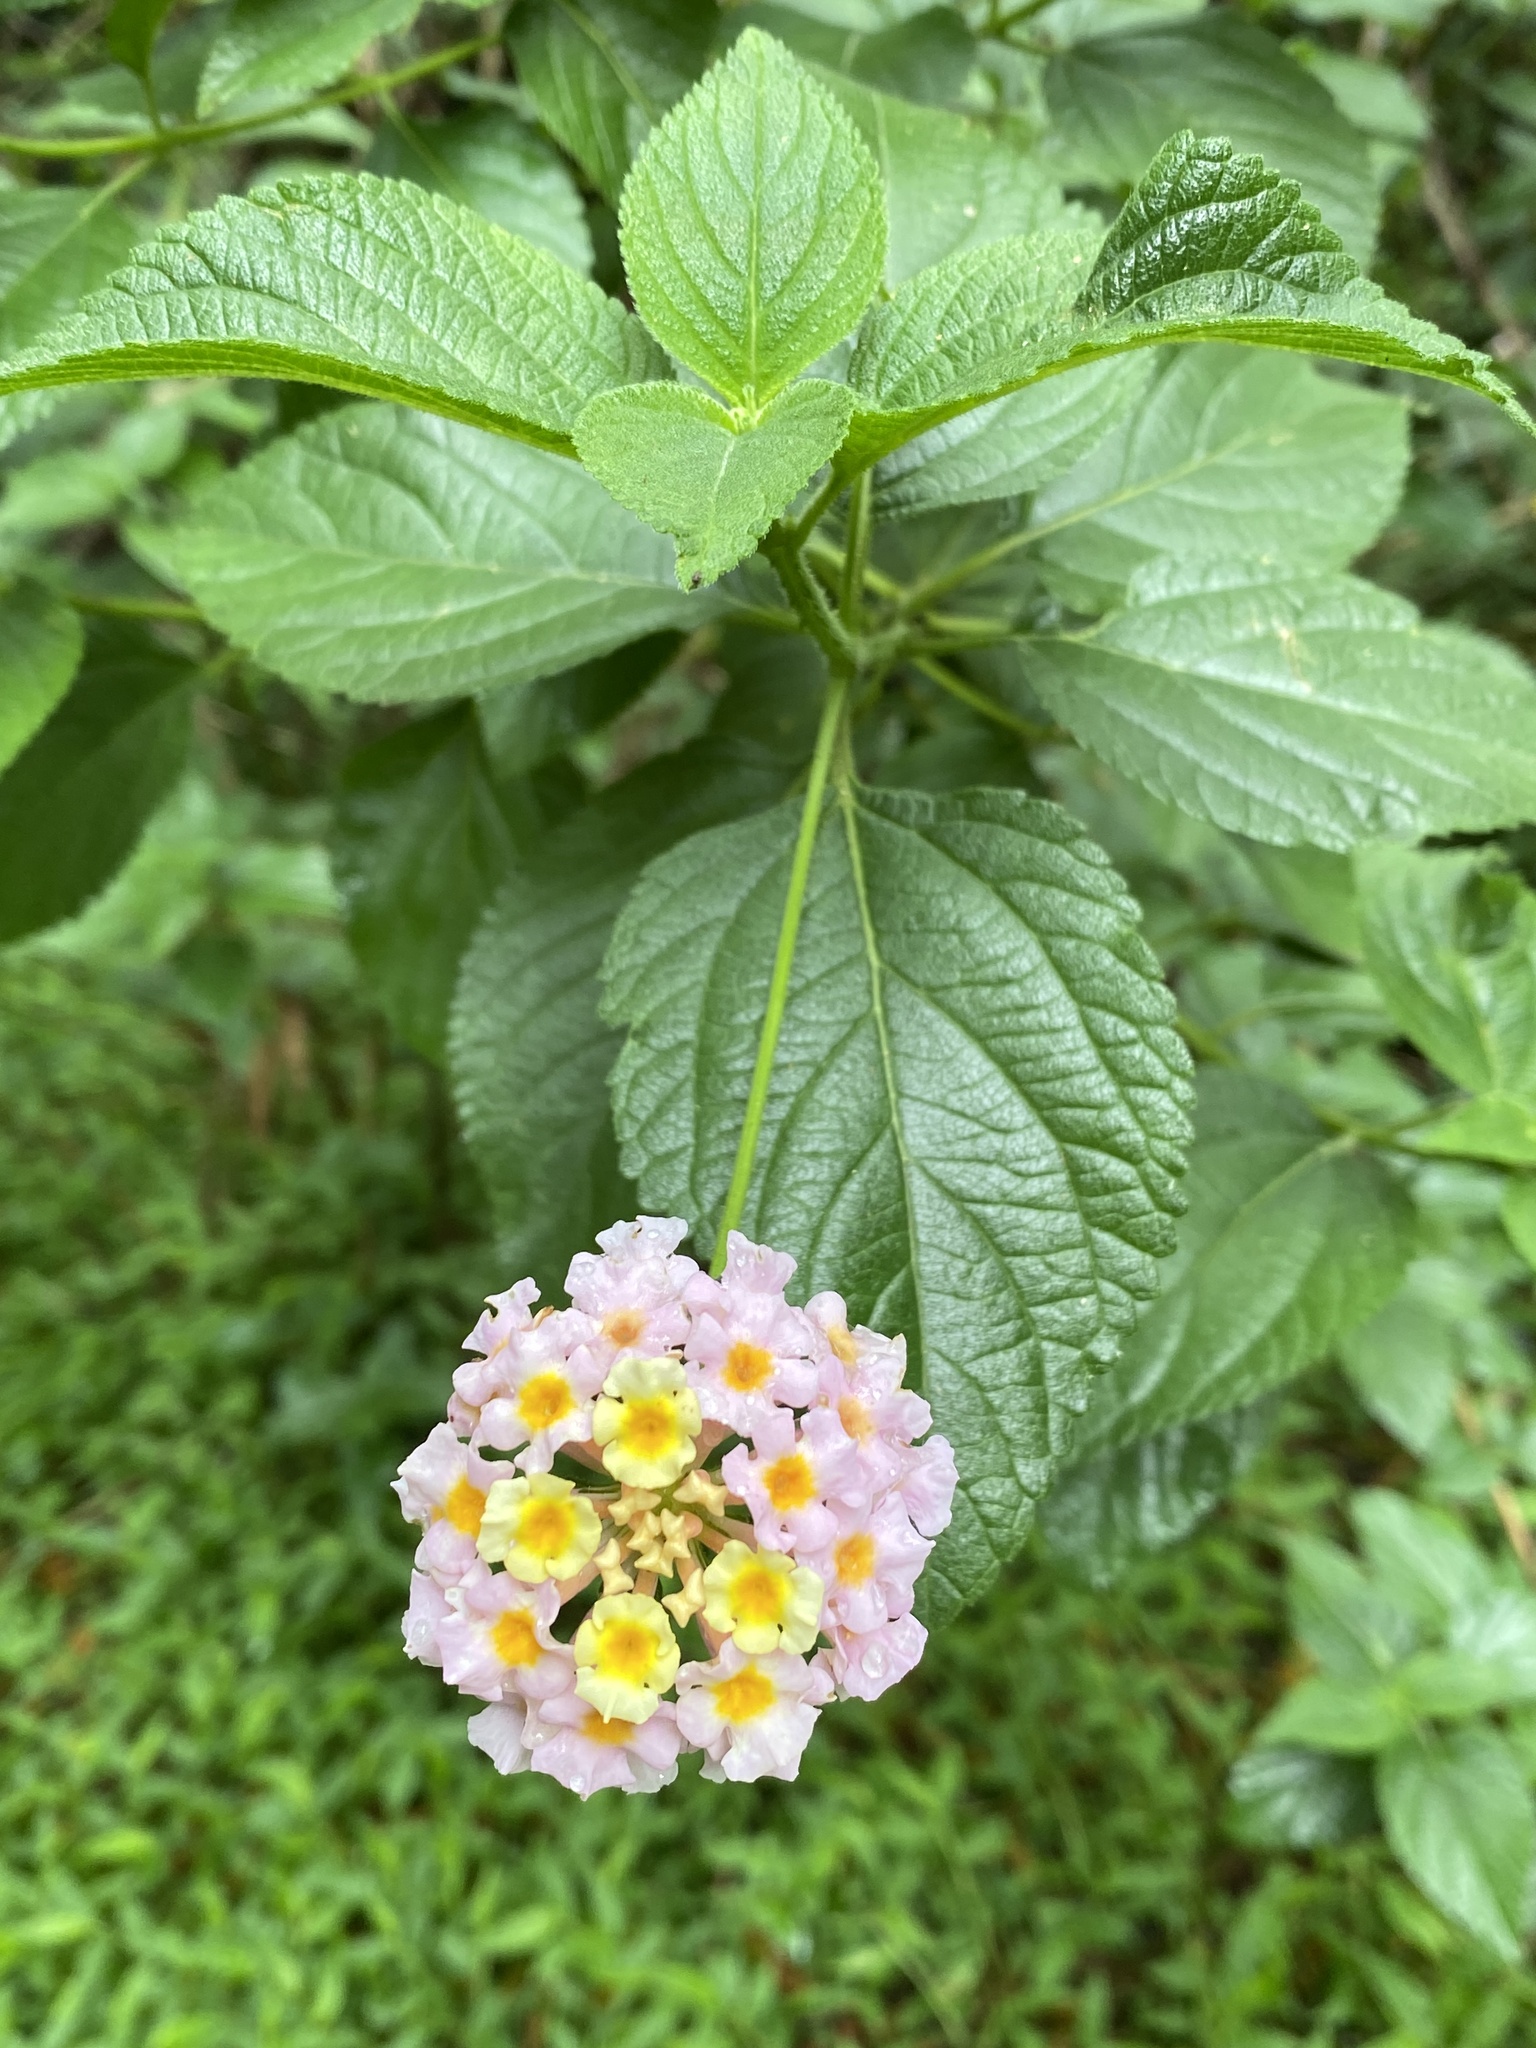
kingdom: Plantae
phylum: Tracheophyta
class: Magnoliopsida
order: Lamiales
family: Verbenaceae
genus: Lantana
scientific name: Lantana camara
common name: Lantana
